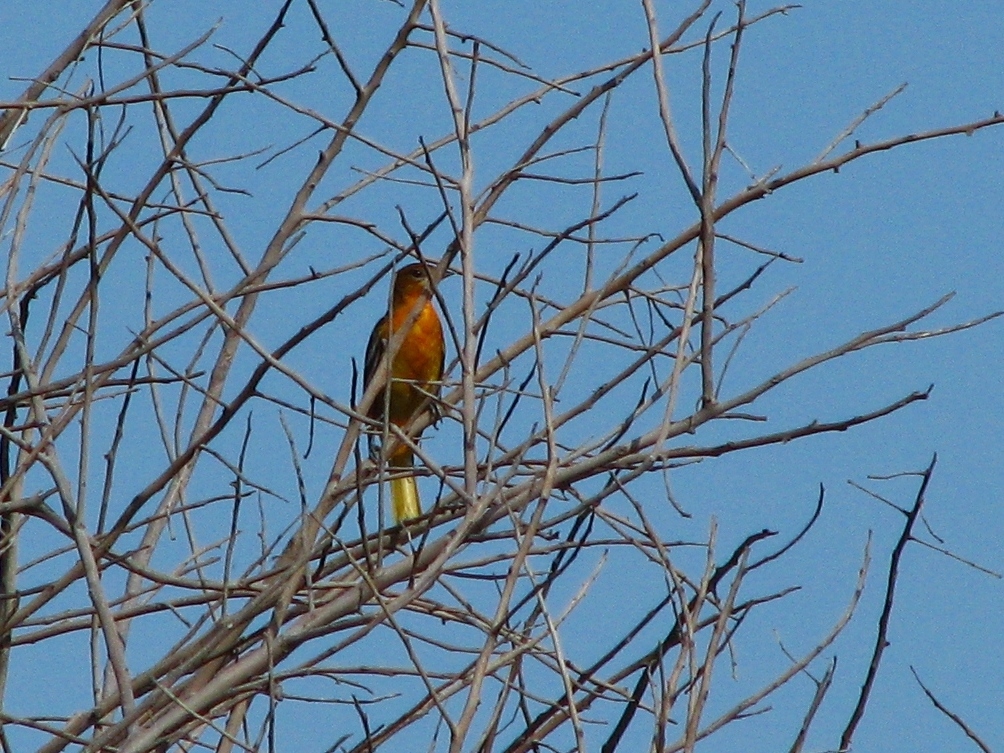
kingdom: Animalia
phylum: Chordata
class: Aves
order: Passeriformes
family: Icteridae
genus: Icterus
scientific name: Icterus galbula
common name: Baltimore oriole
